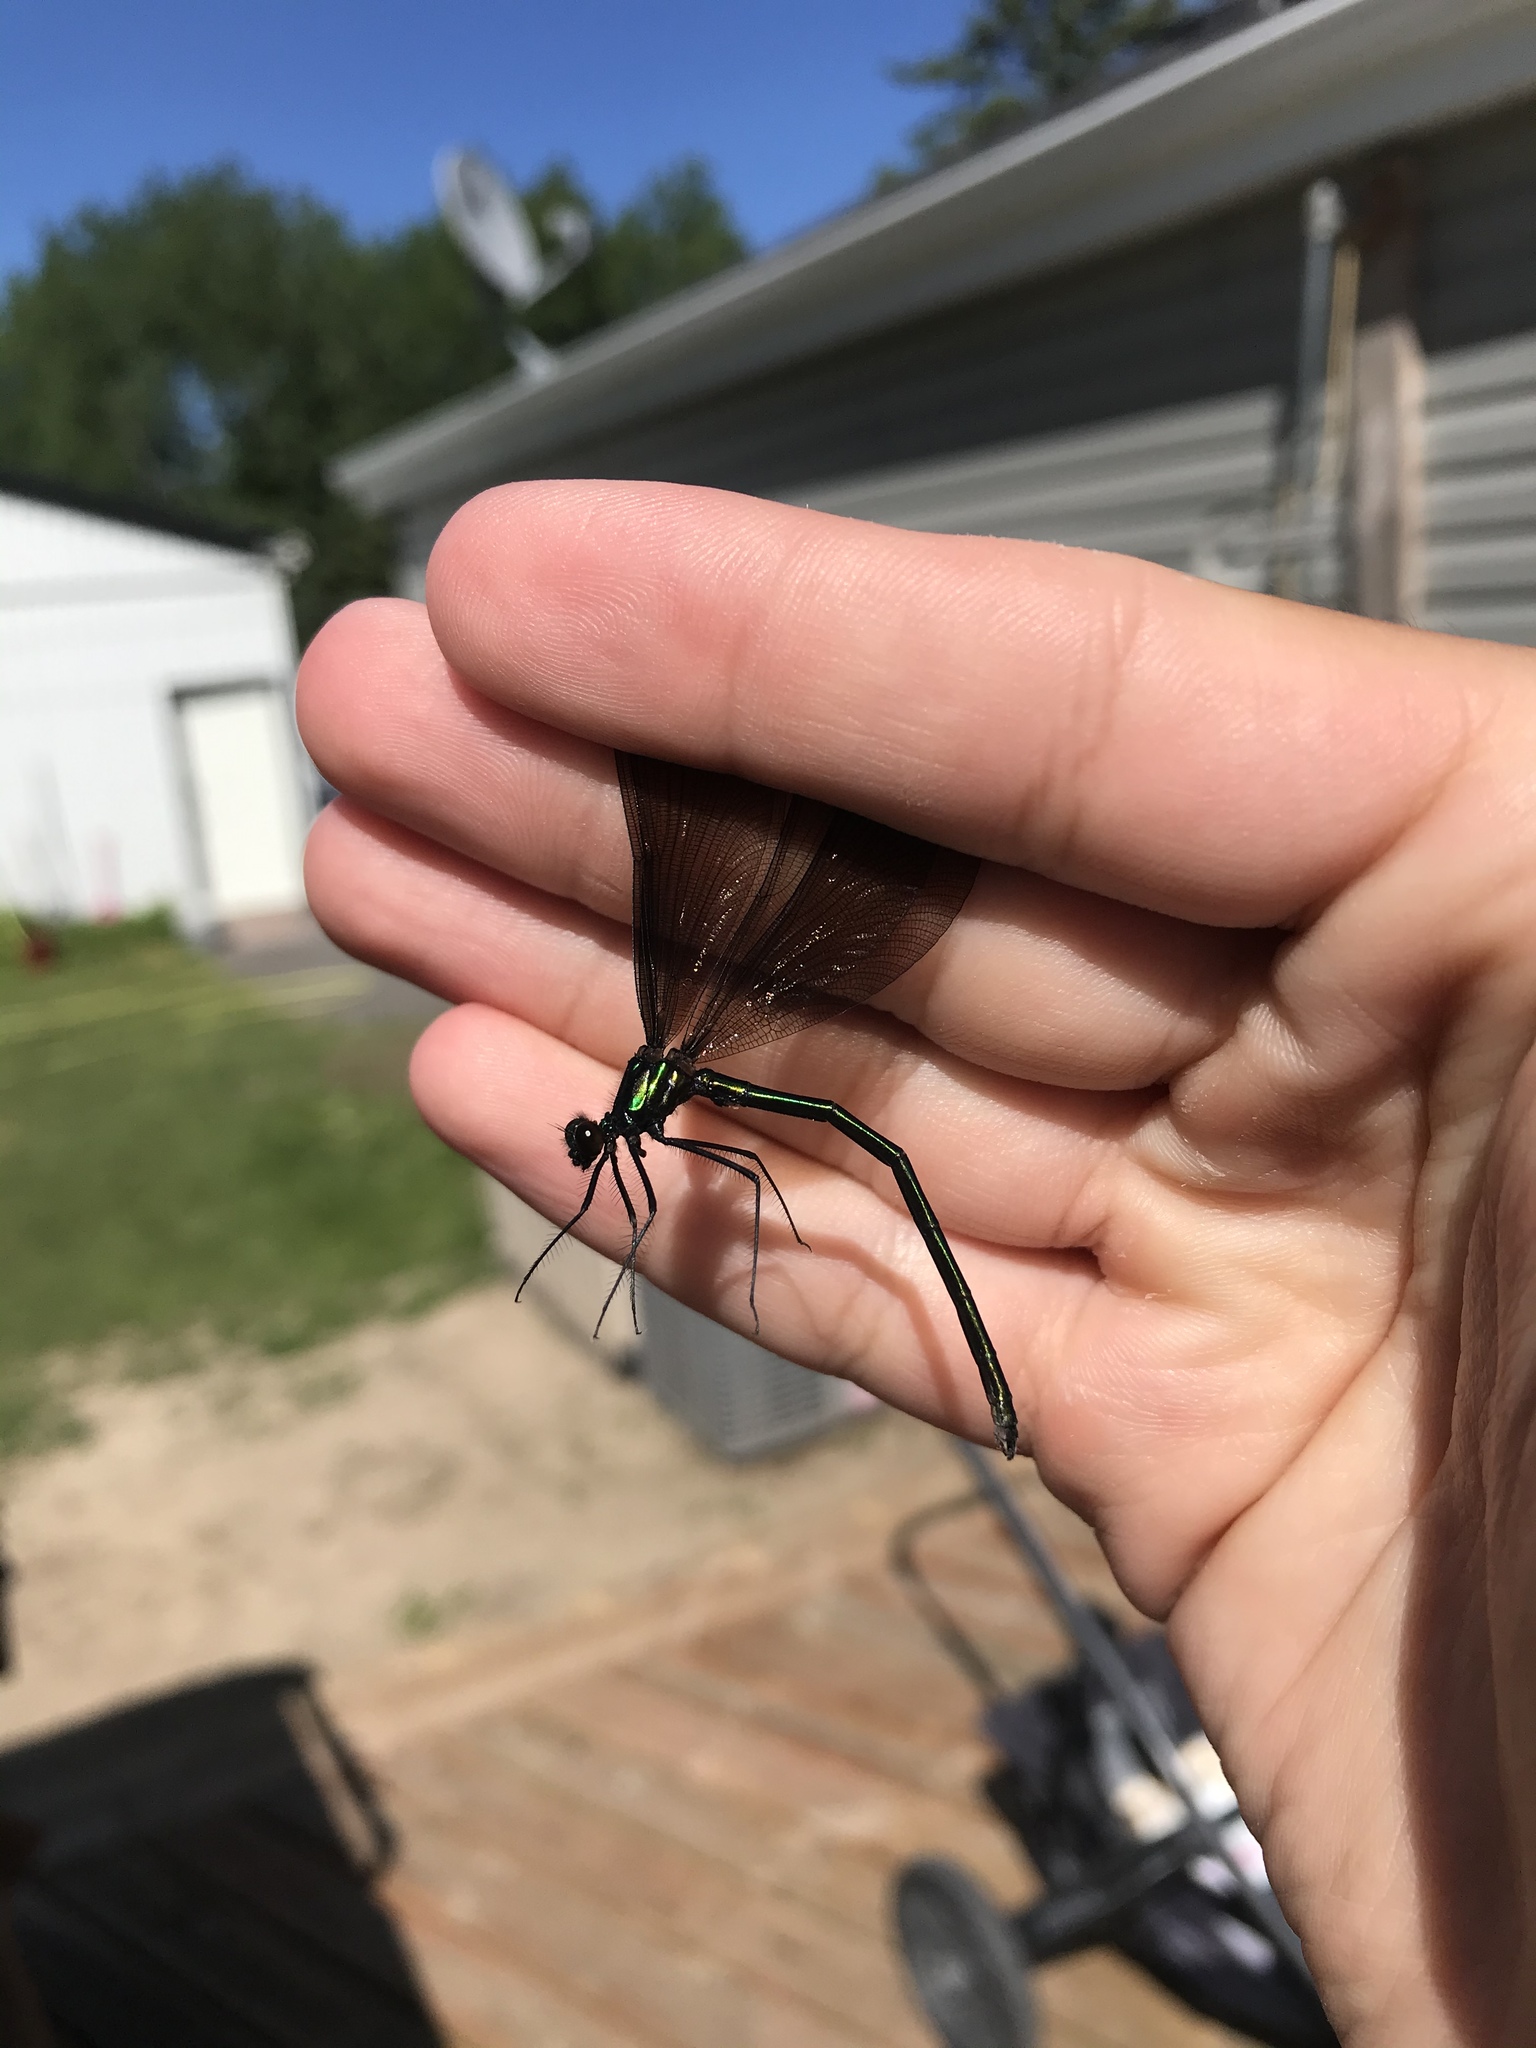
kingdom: Animalia
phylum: Arthropoda
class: Insecta
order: Odonata
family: Calopterygidae
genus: Calopteryx
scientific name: Calopteryx maculata
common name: Ebony jewelwing
